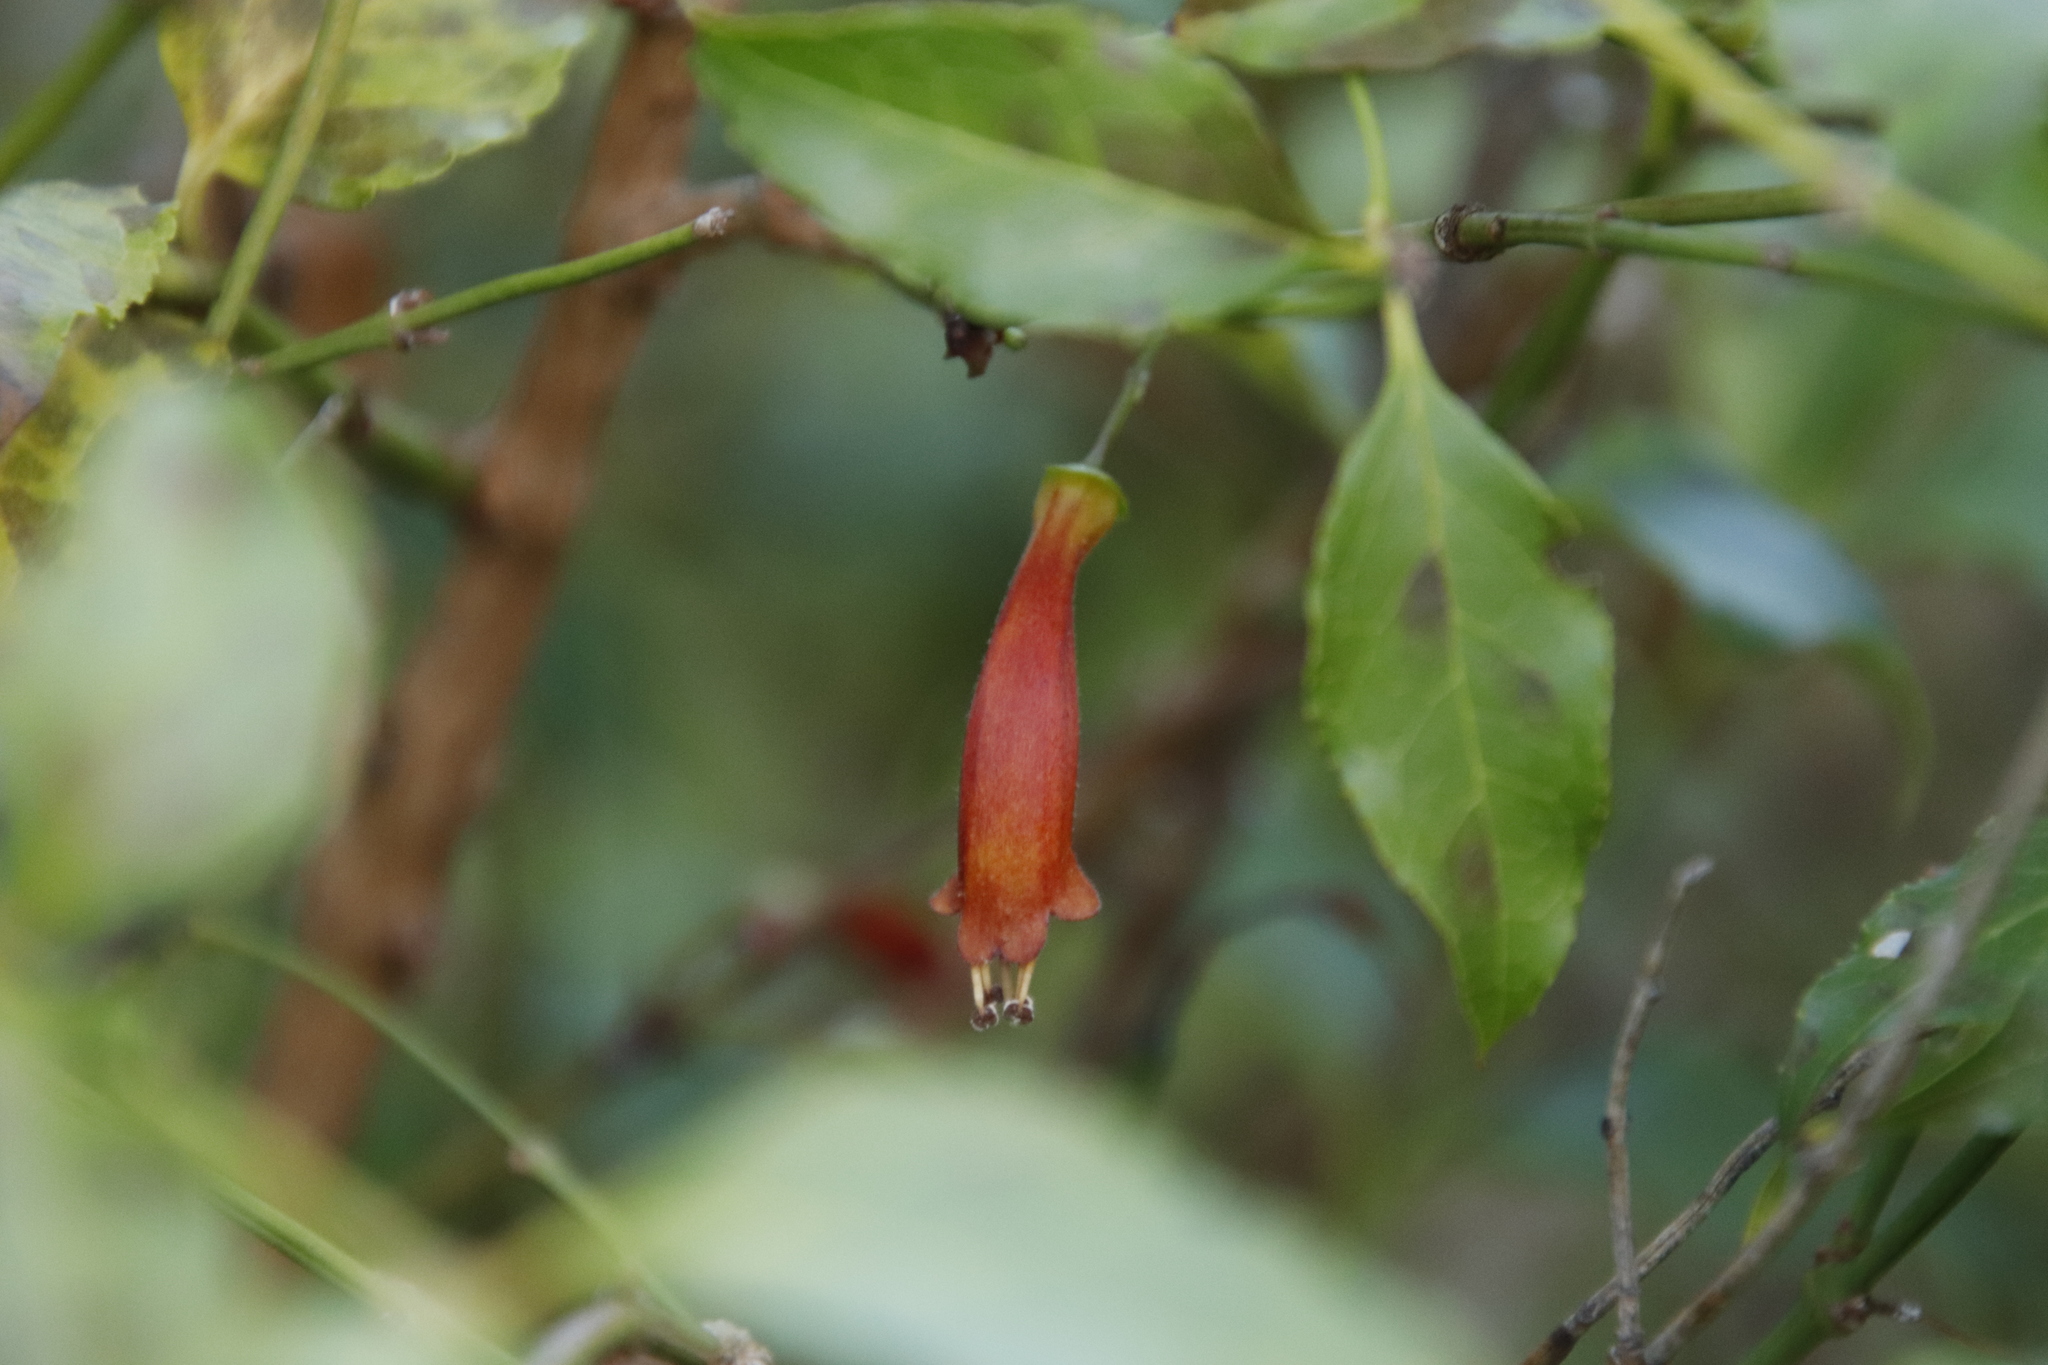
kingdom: Plantae
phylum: Tracheophyta
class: Magnoliopsida
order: Lamiales
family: Stilbaceae
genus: Halleria
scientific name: Halleria lucida
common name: Tree fuschia
